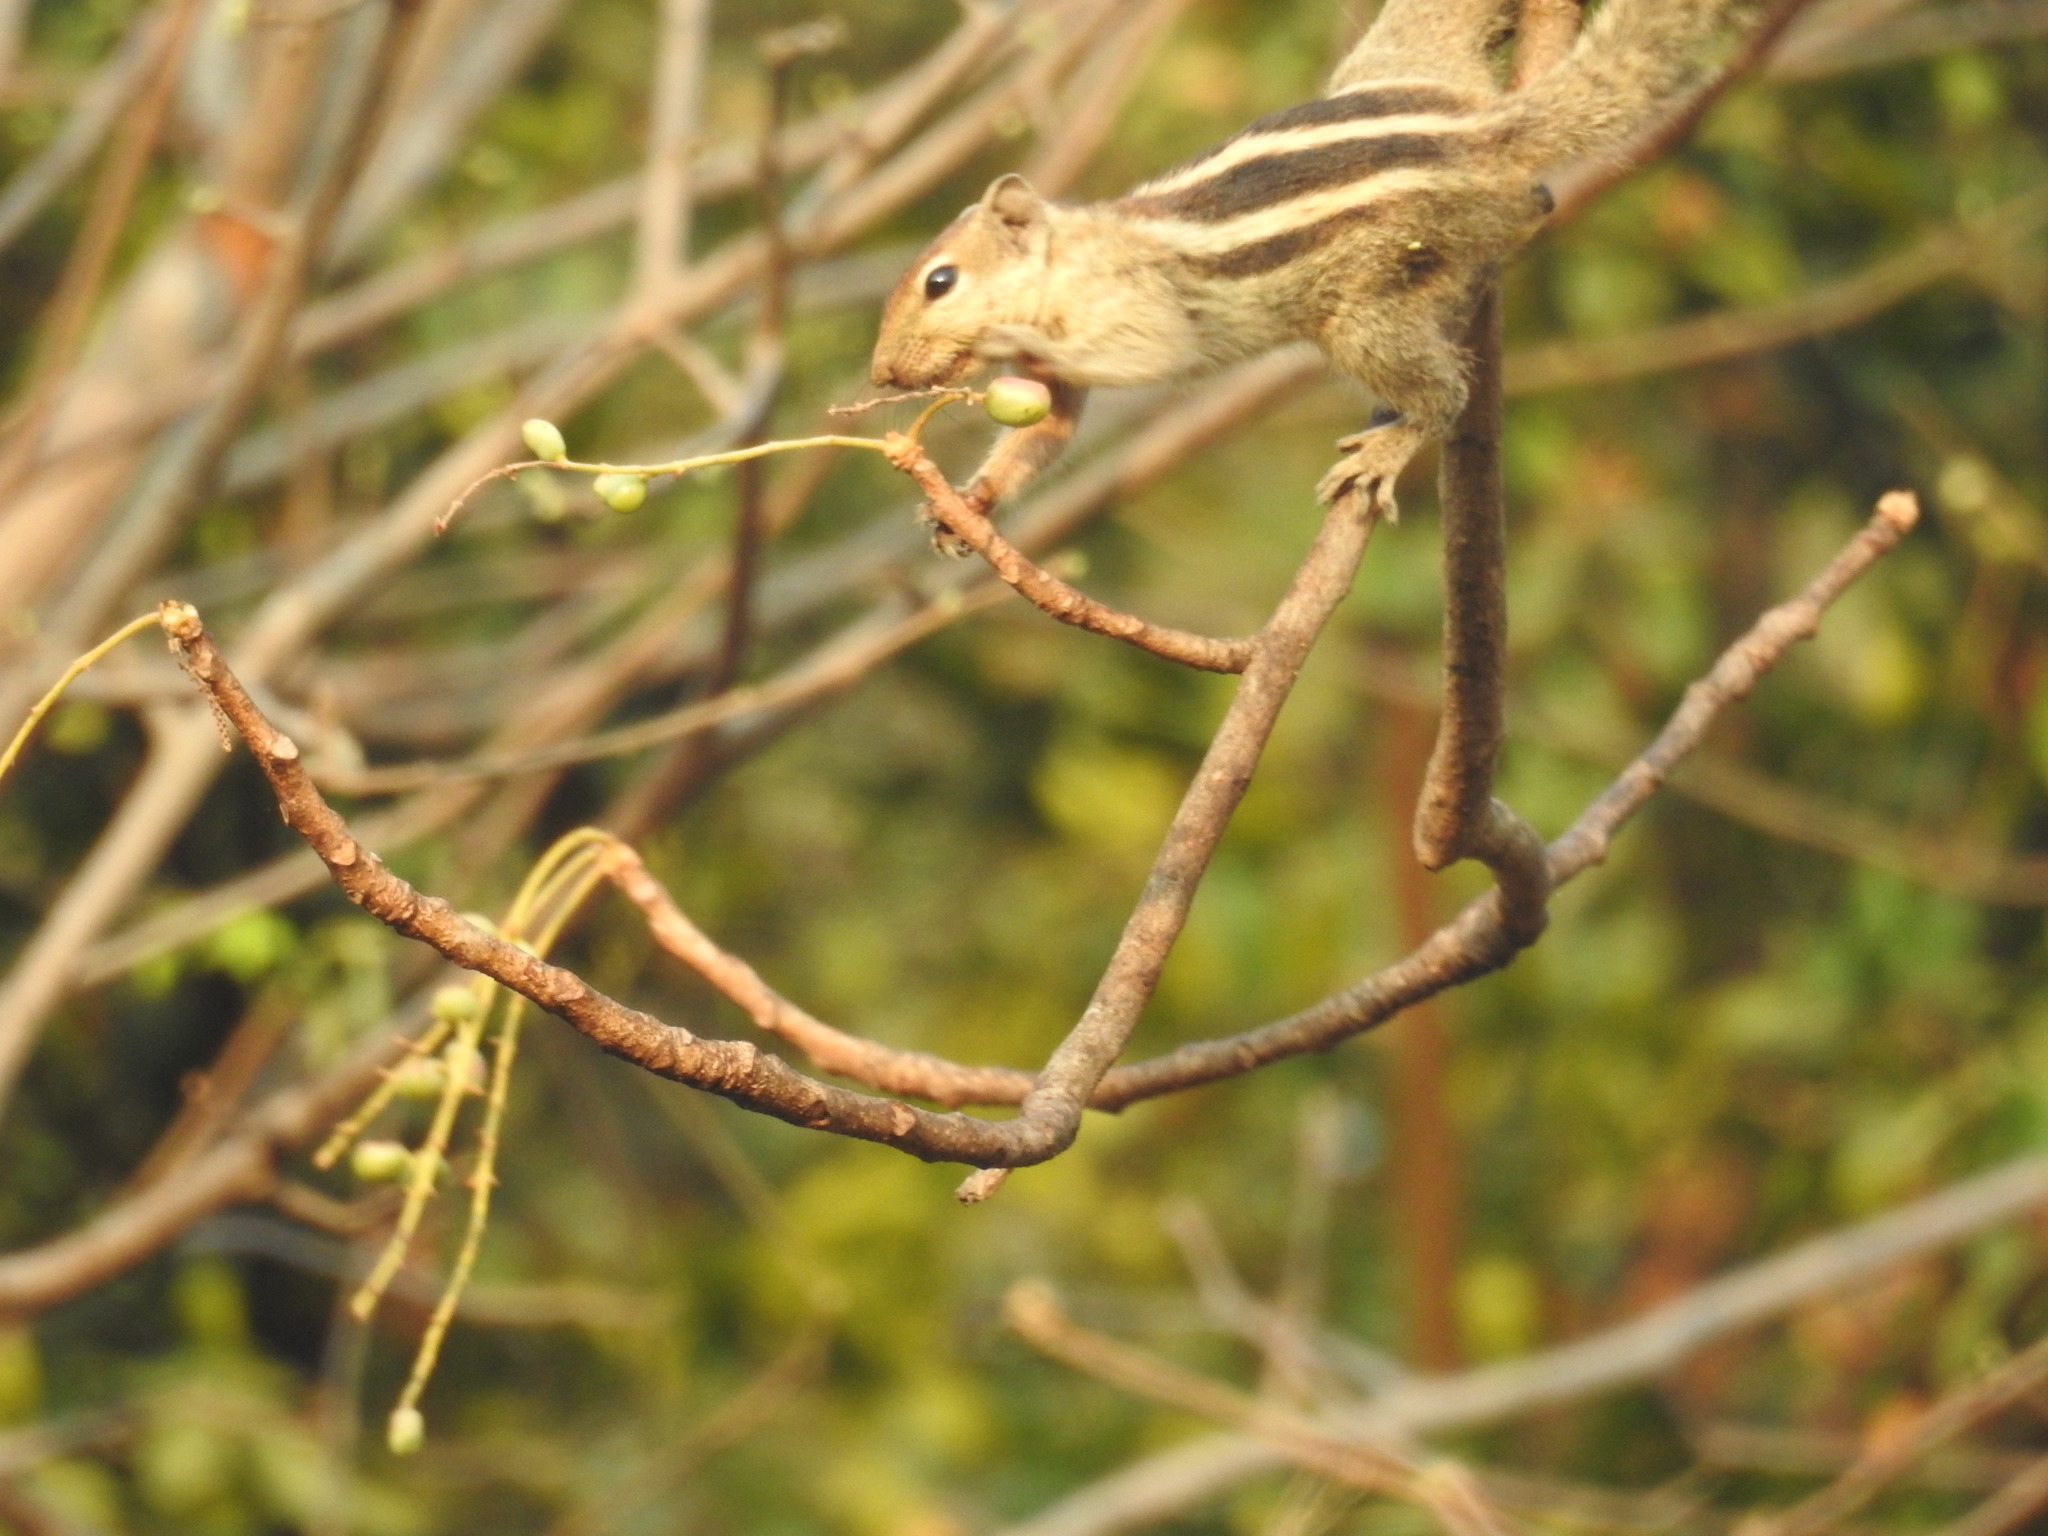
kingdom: Animalia
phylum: Chordata
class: Mammalia
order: Rodentia
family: Sciuridae
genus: Funambulus
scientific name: Funambulus palmarum
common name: Indian palm squirrel
